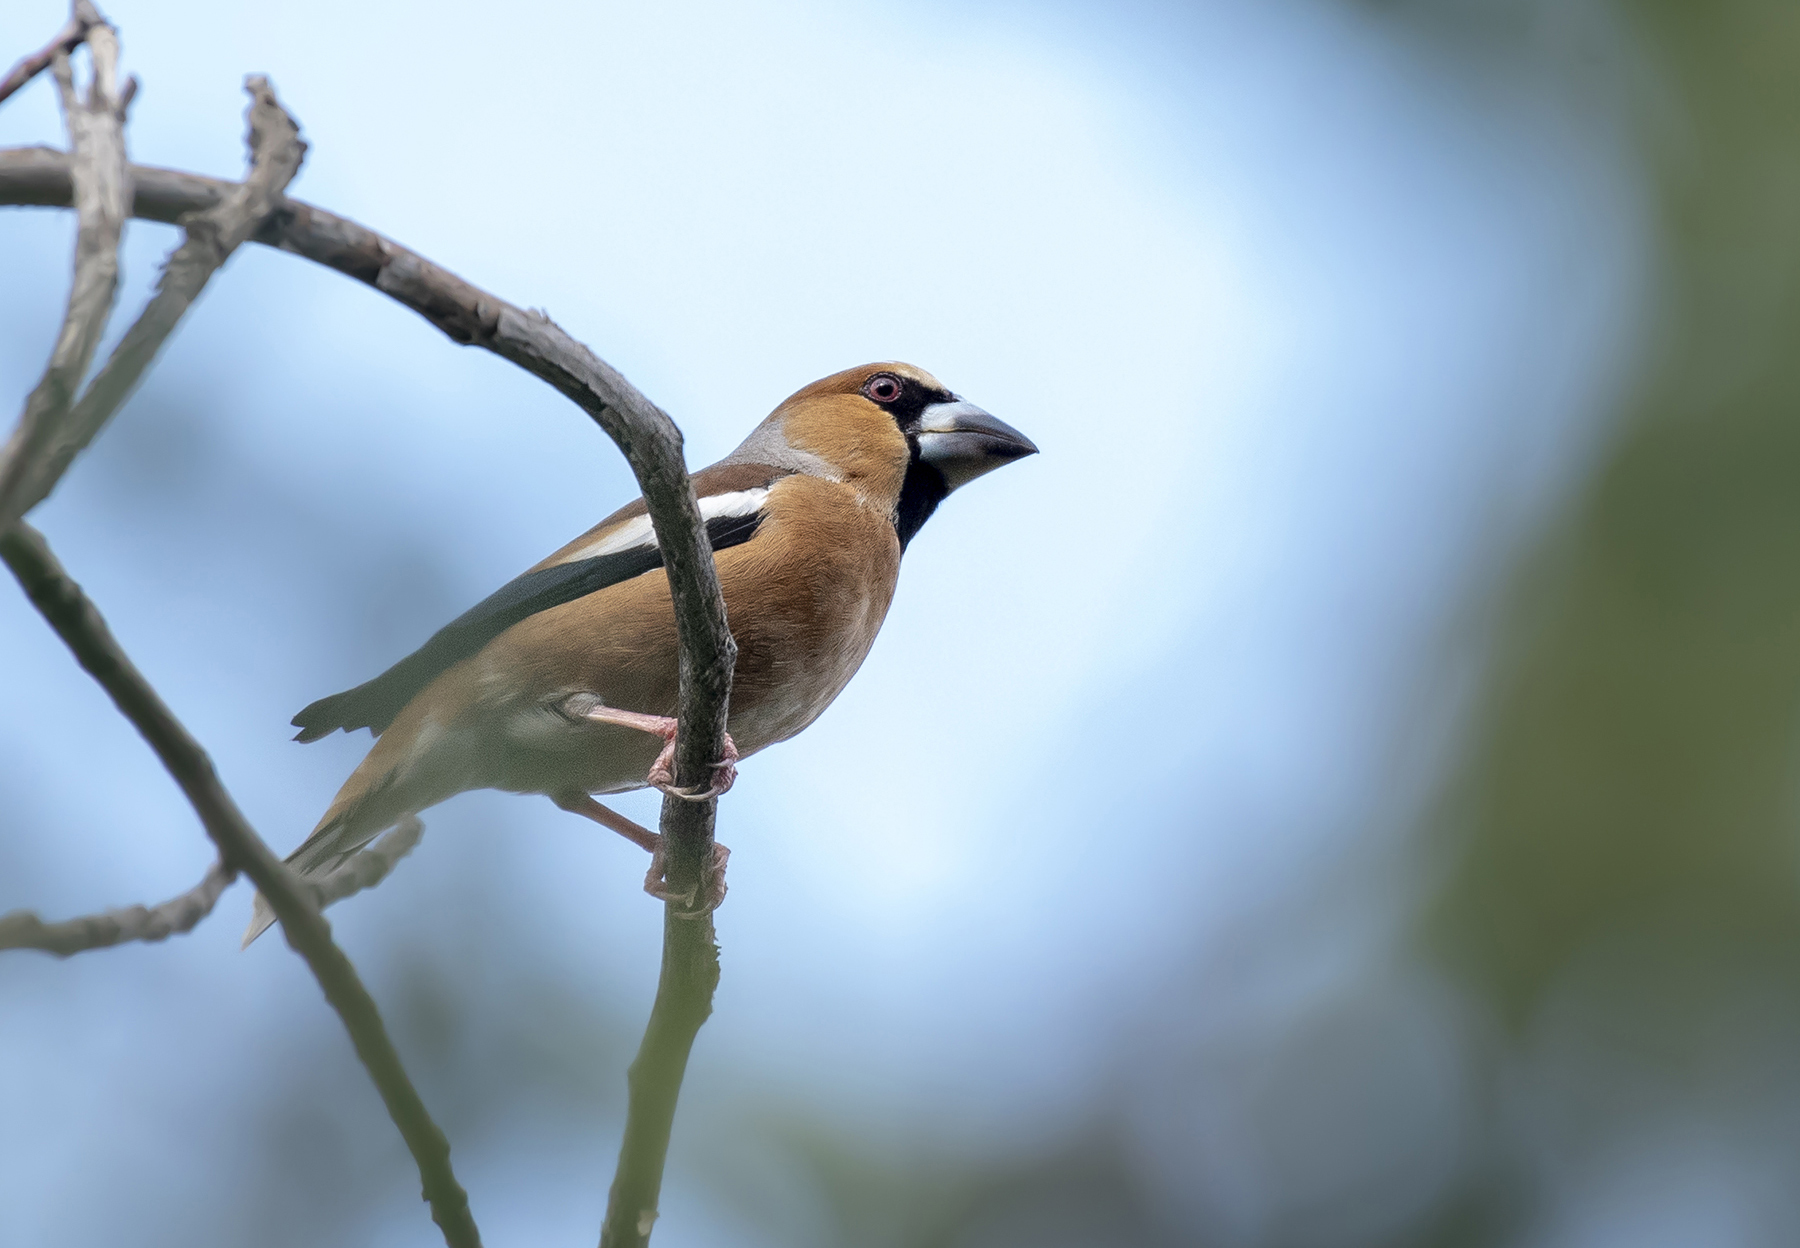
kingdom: Animalia
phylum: Chordata
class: Aves
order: Passeriformes
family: Fringillidae
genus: Coccothraustes
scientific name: Coccothraustes coccothraustes
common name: Hawfinch
